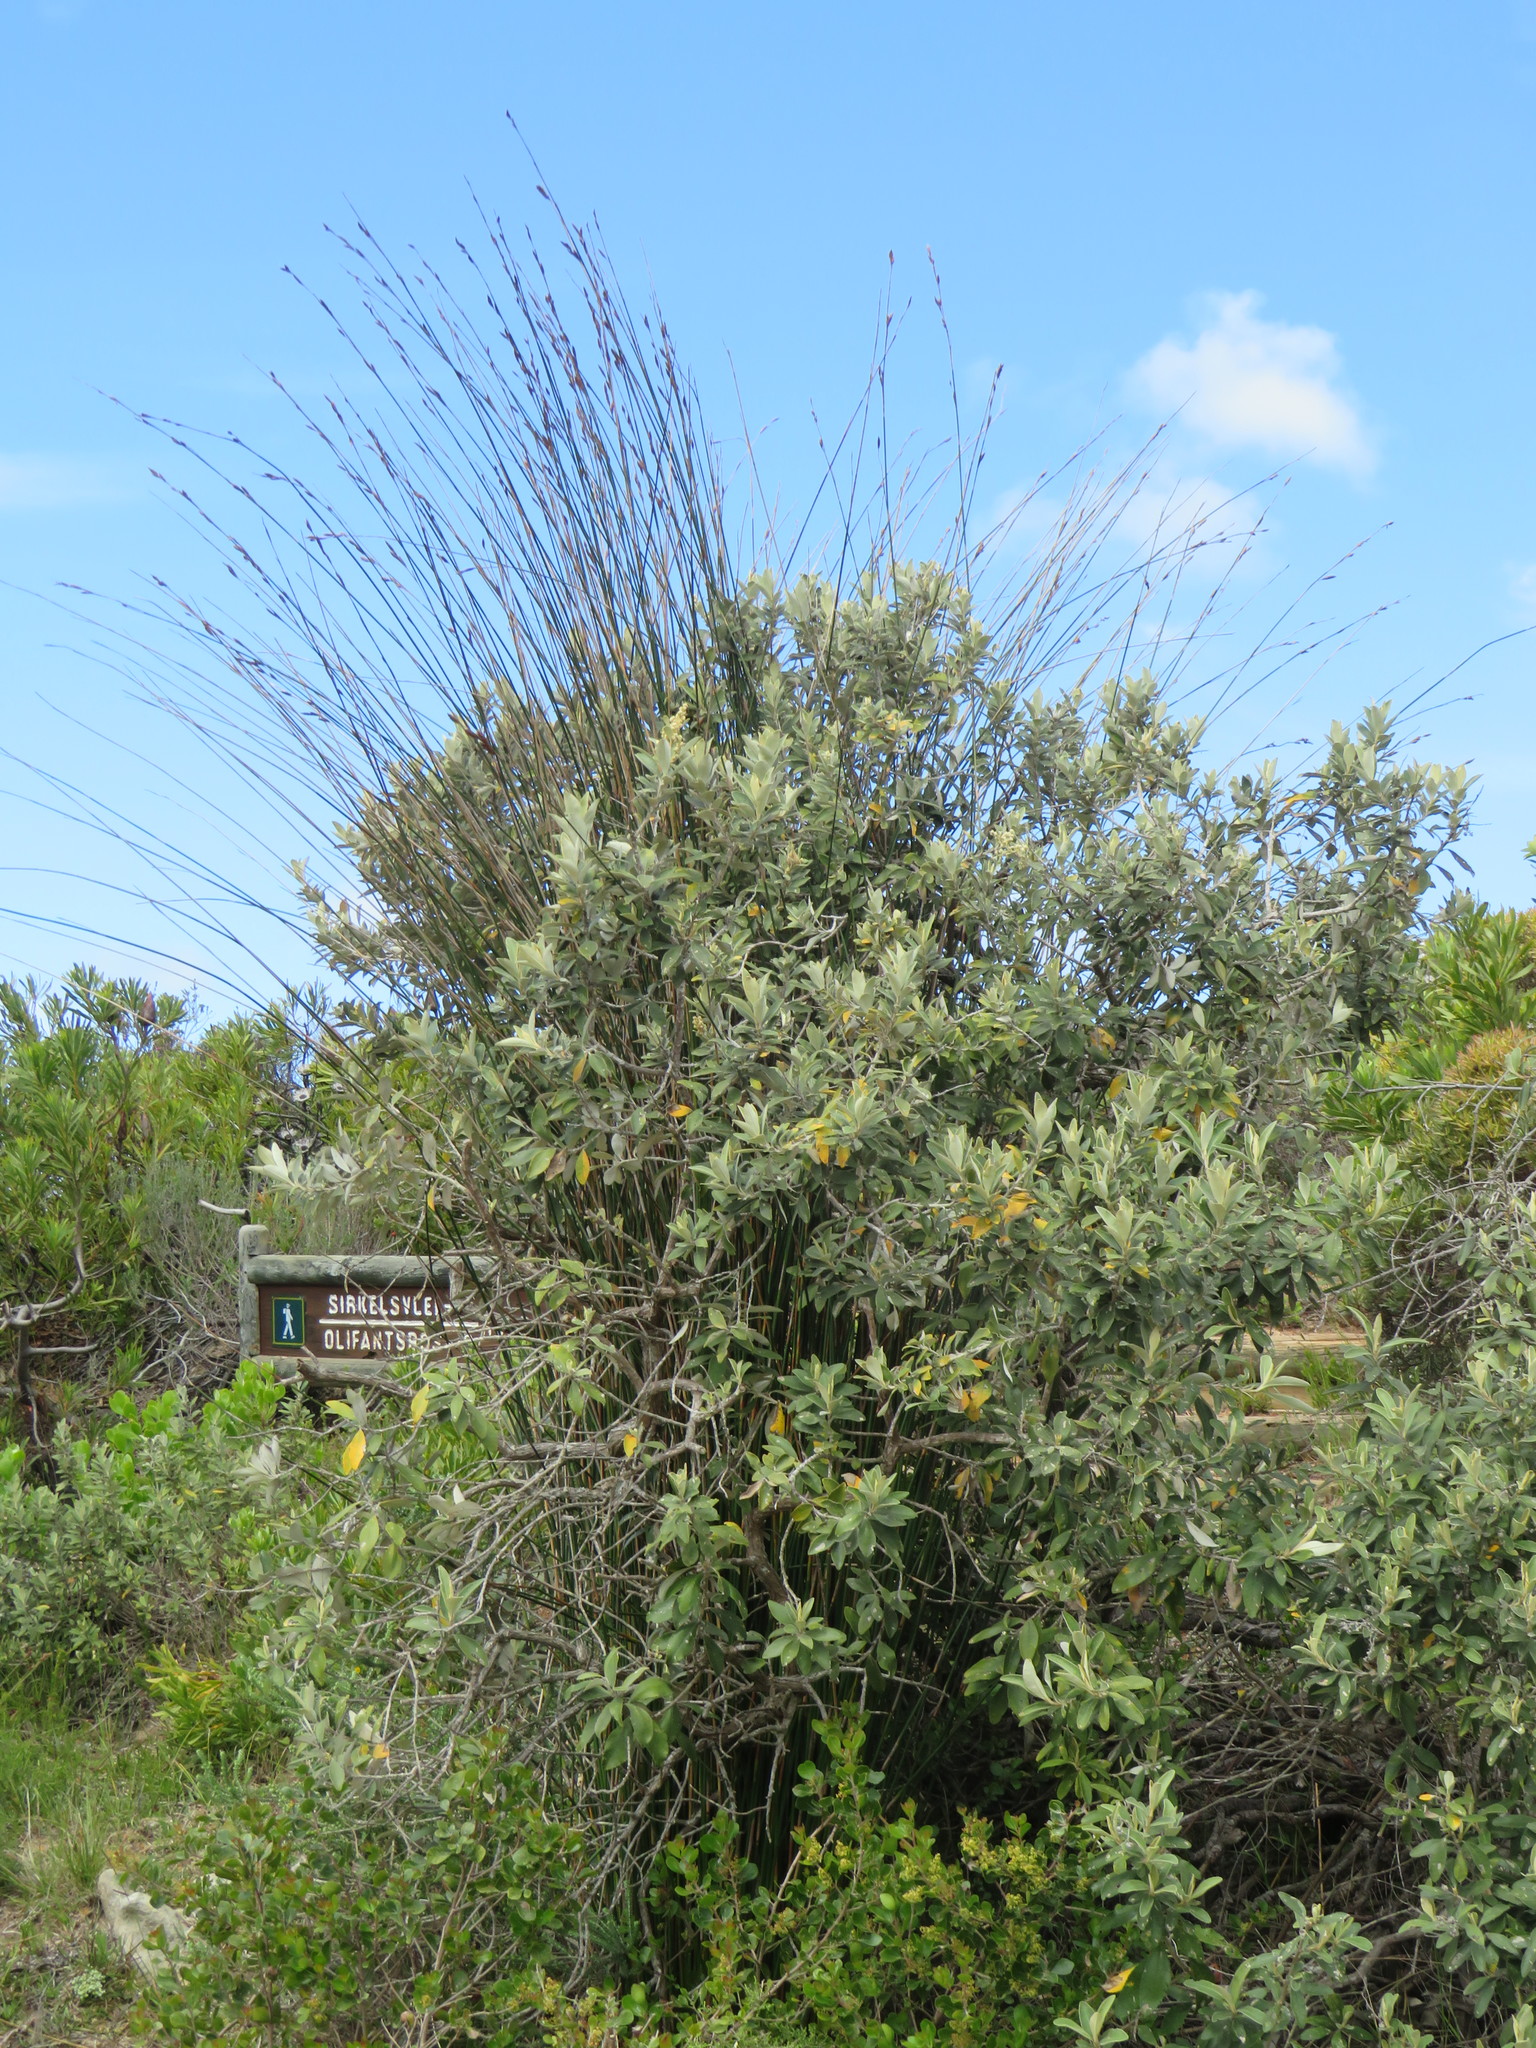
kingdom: Plantae
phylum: Tracheophyta
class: Liliopsida
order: Poales
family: Restionaceae
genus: Thamnochortus
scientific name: Thamnochortus insignis
